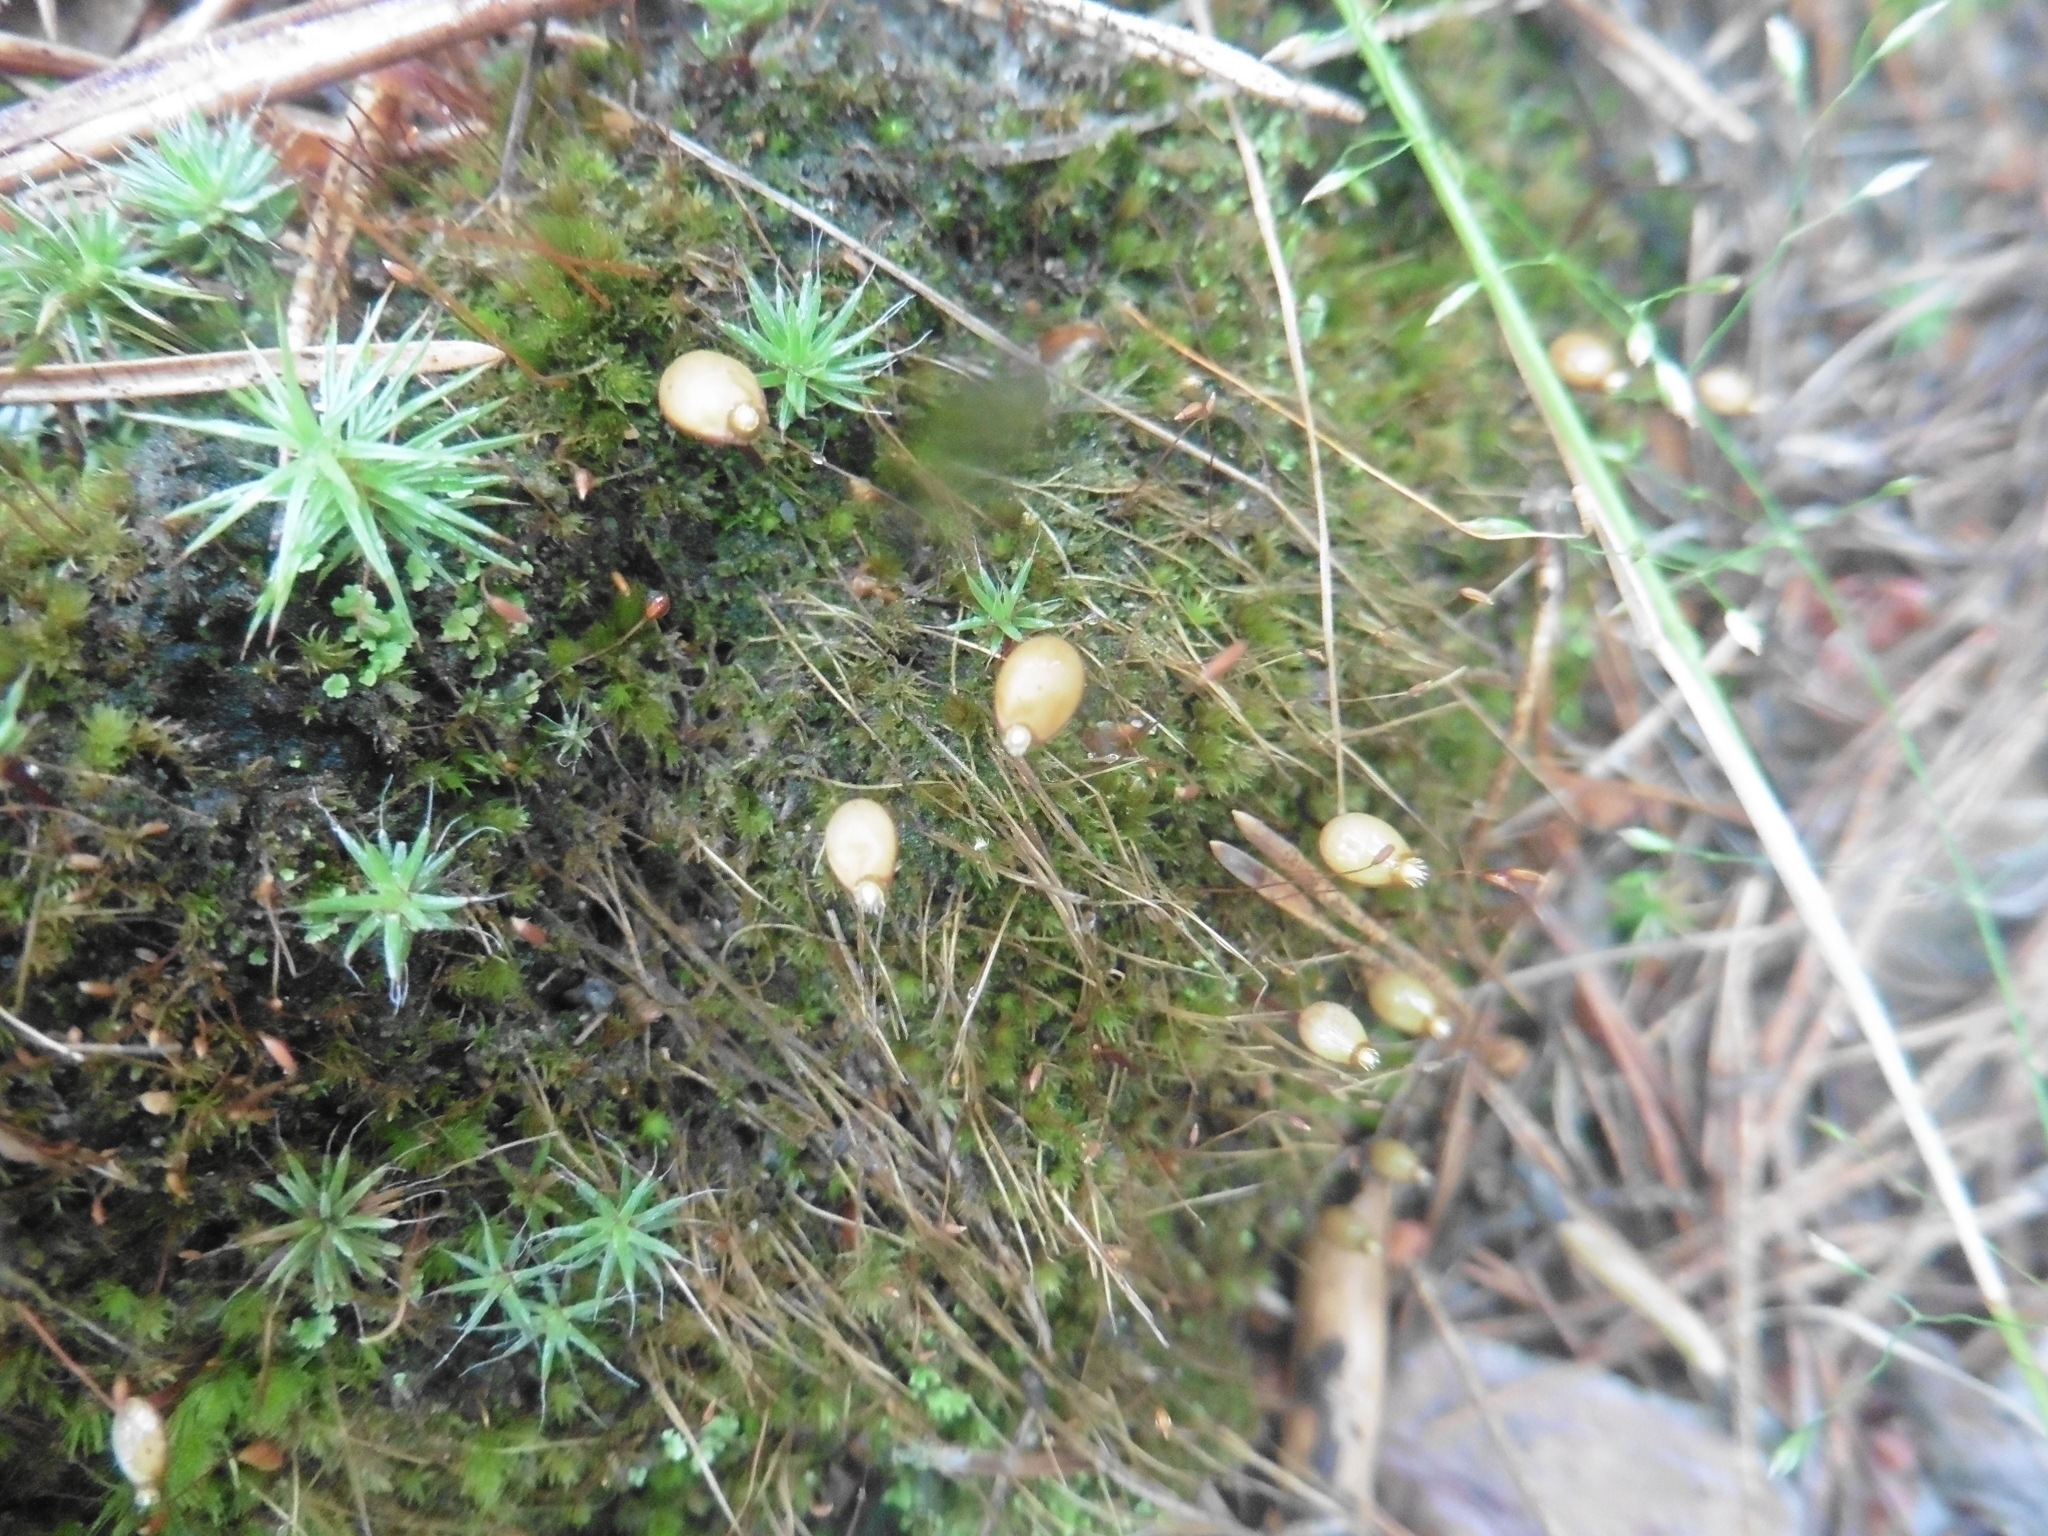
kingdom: Plantae
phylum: Bryophyta
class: Bryopsida
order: Buxbaumiales
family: Buxbaumiaceae
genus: Buxbaumia
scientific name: Buxbaumia aphylla
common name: Brown shield-moss
